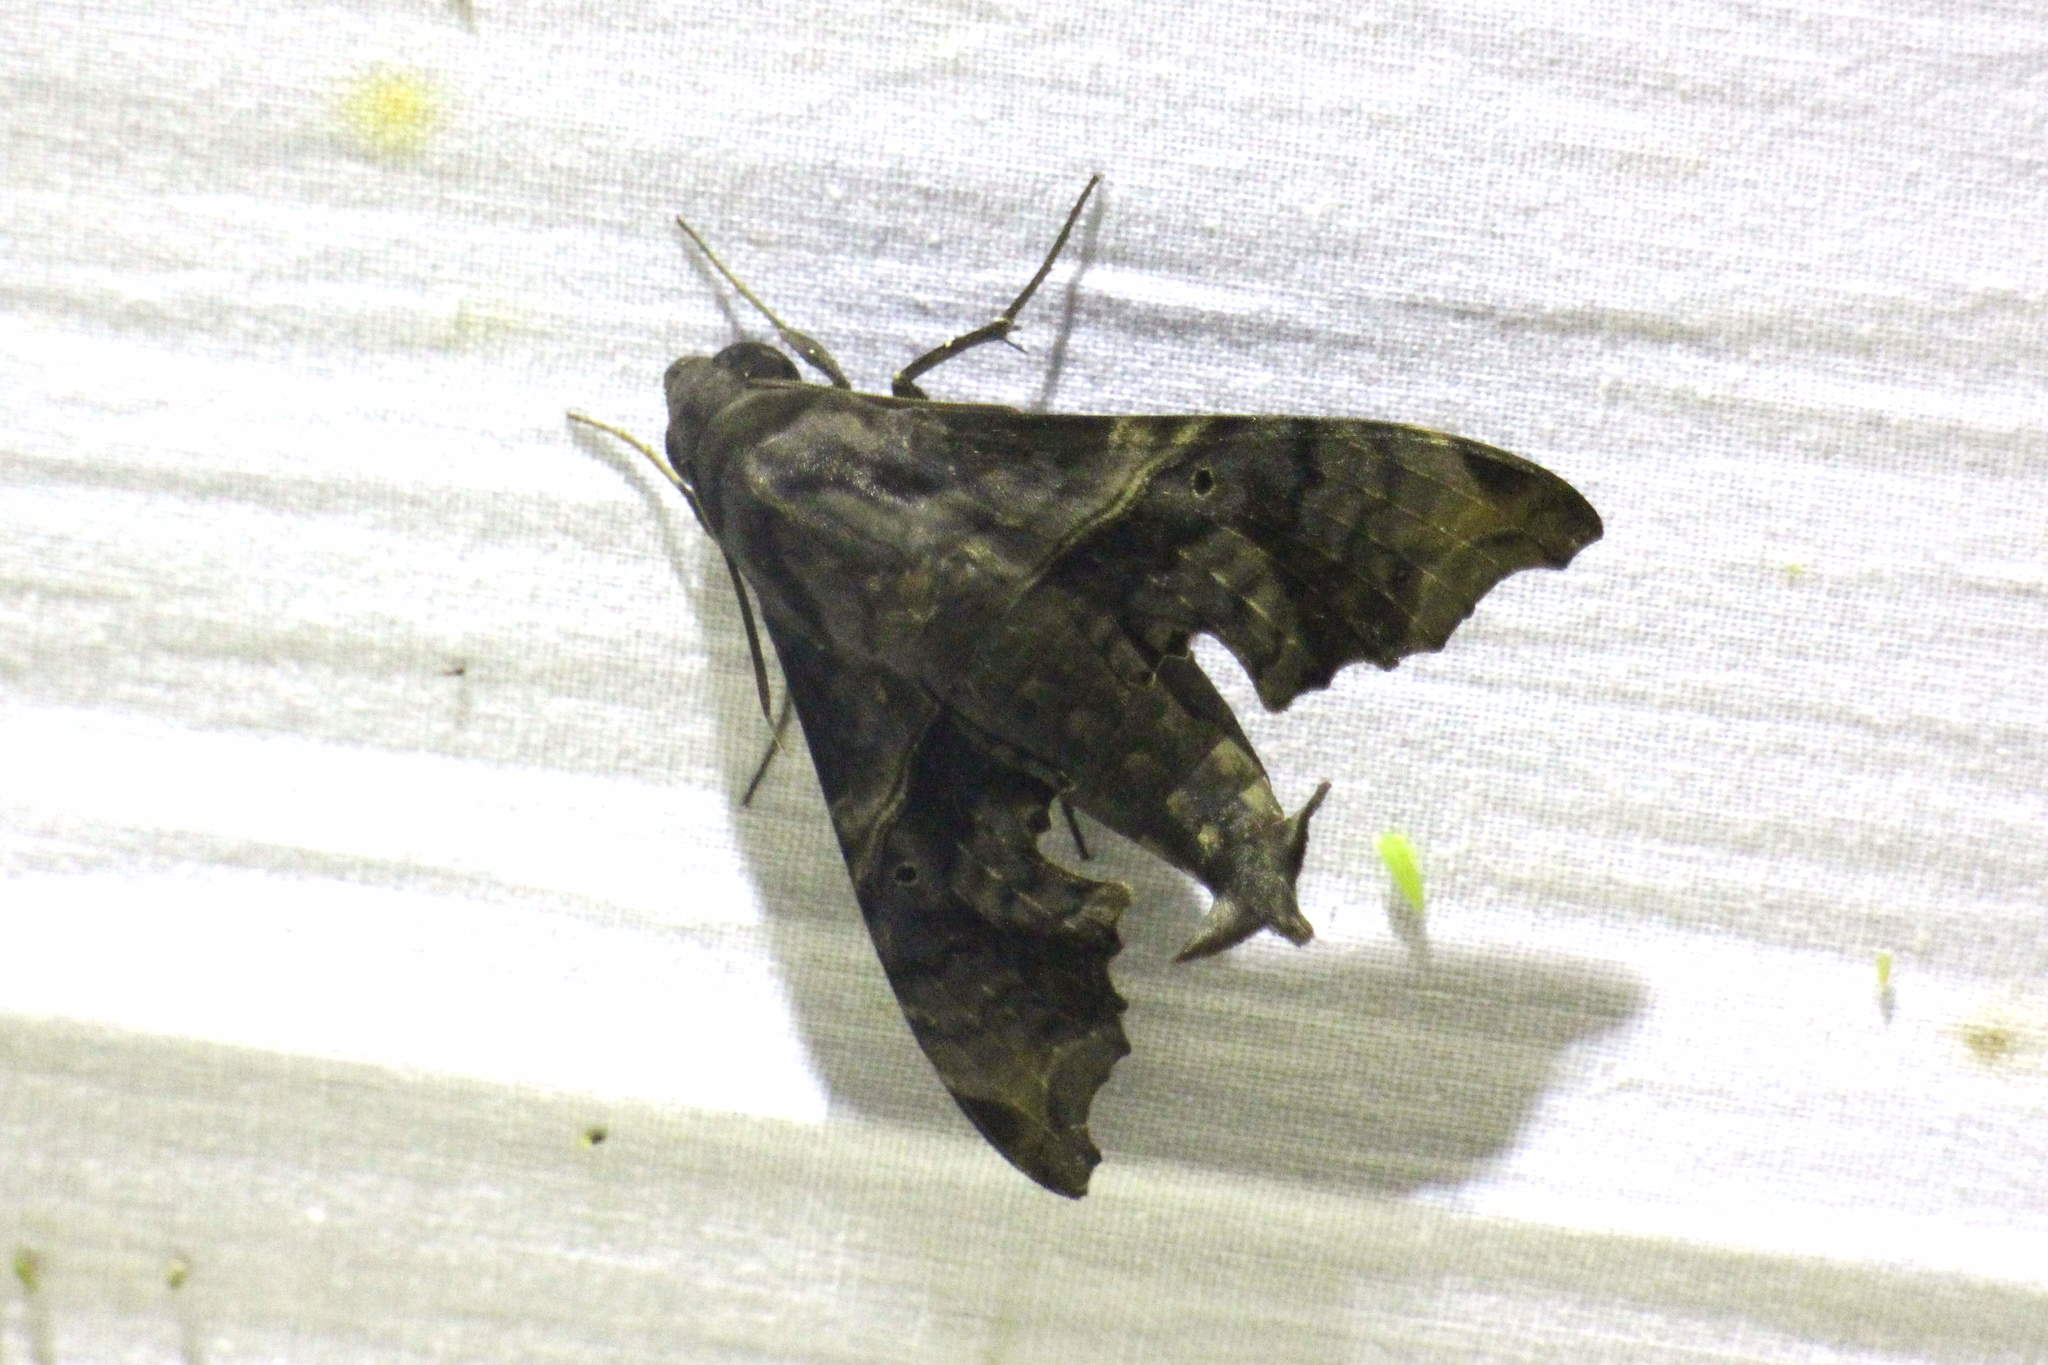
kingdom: Animalia
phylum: Arthropoda
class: Insecta
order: Lepidoptera
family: Sphingidae
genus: Enyo
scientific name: Enyo lugubris
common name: Mournful sphinx
